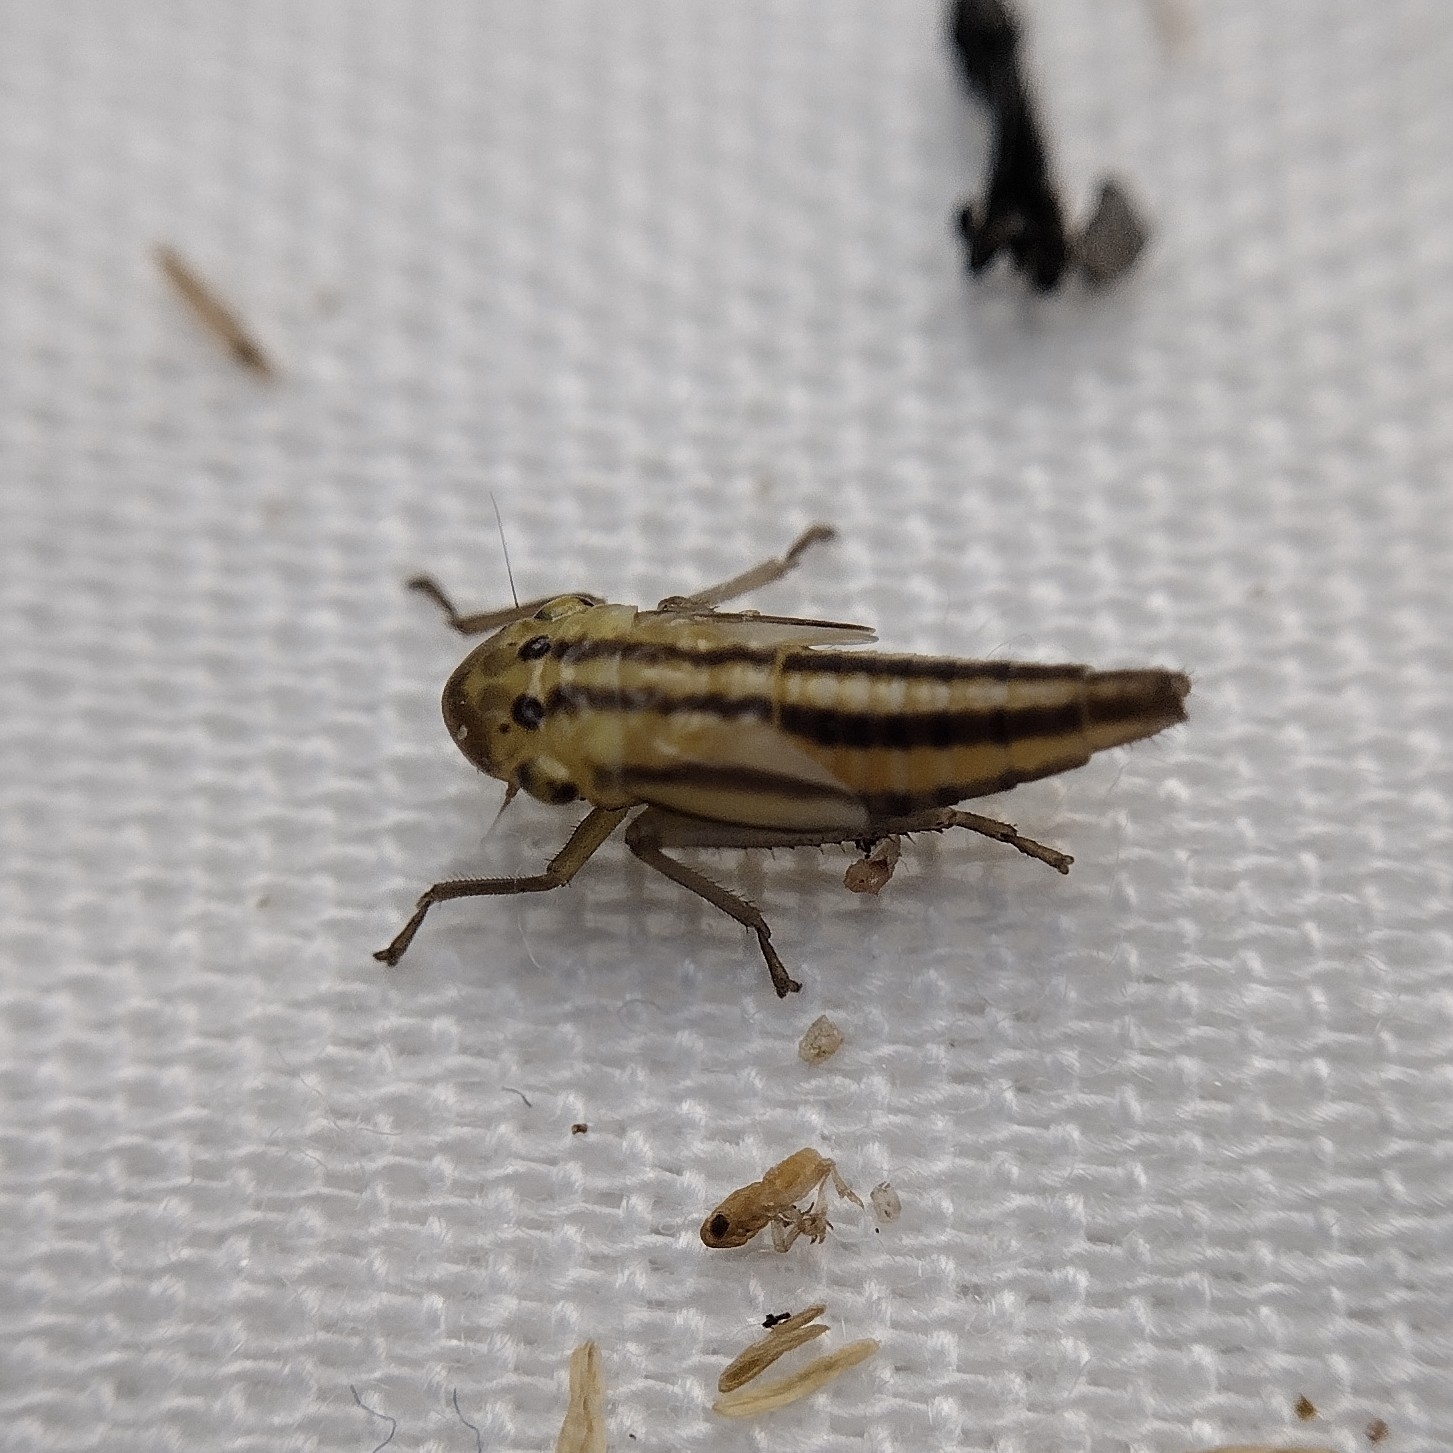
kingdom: Animalia
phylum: Arthropoda
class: Insecta
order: Hemiptera
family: Cicadellidae
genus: Cicadella
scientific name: Cicadella viridis
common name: Leafhopper
